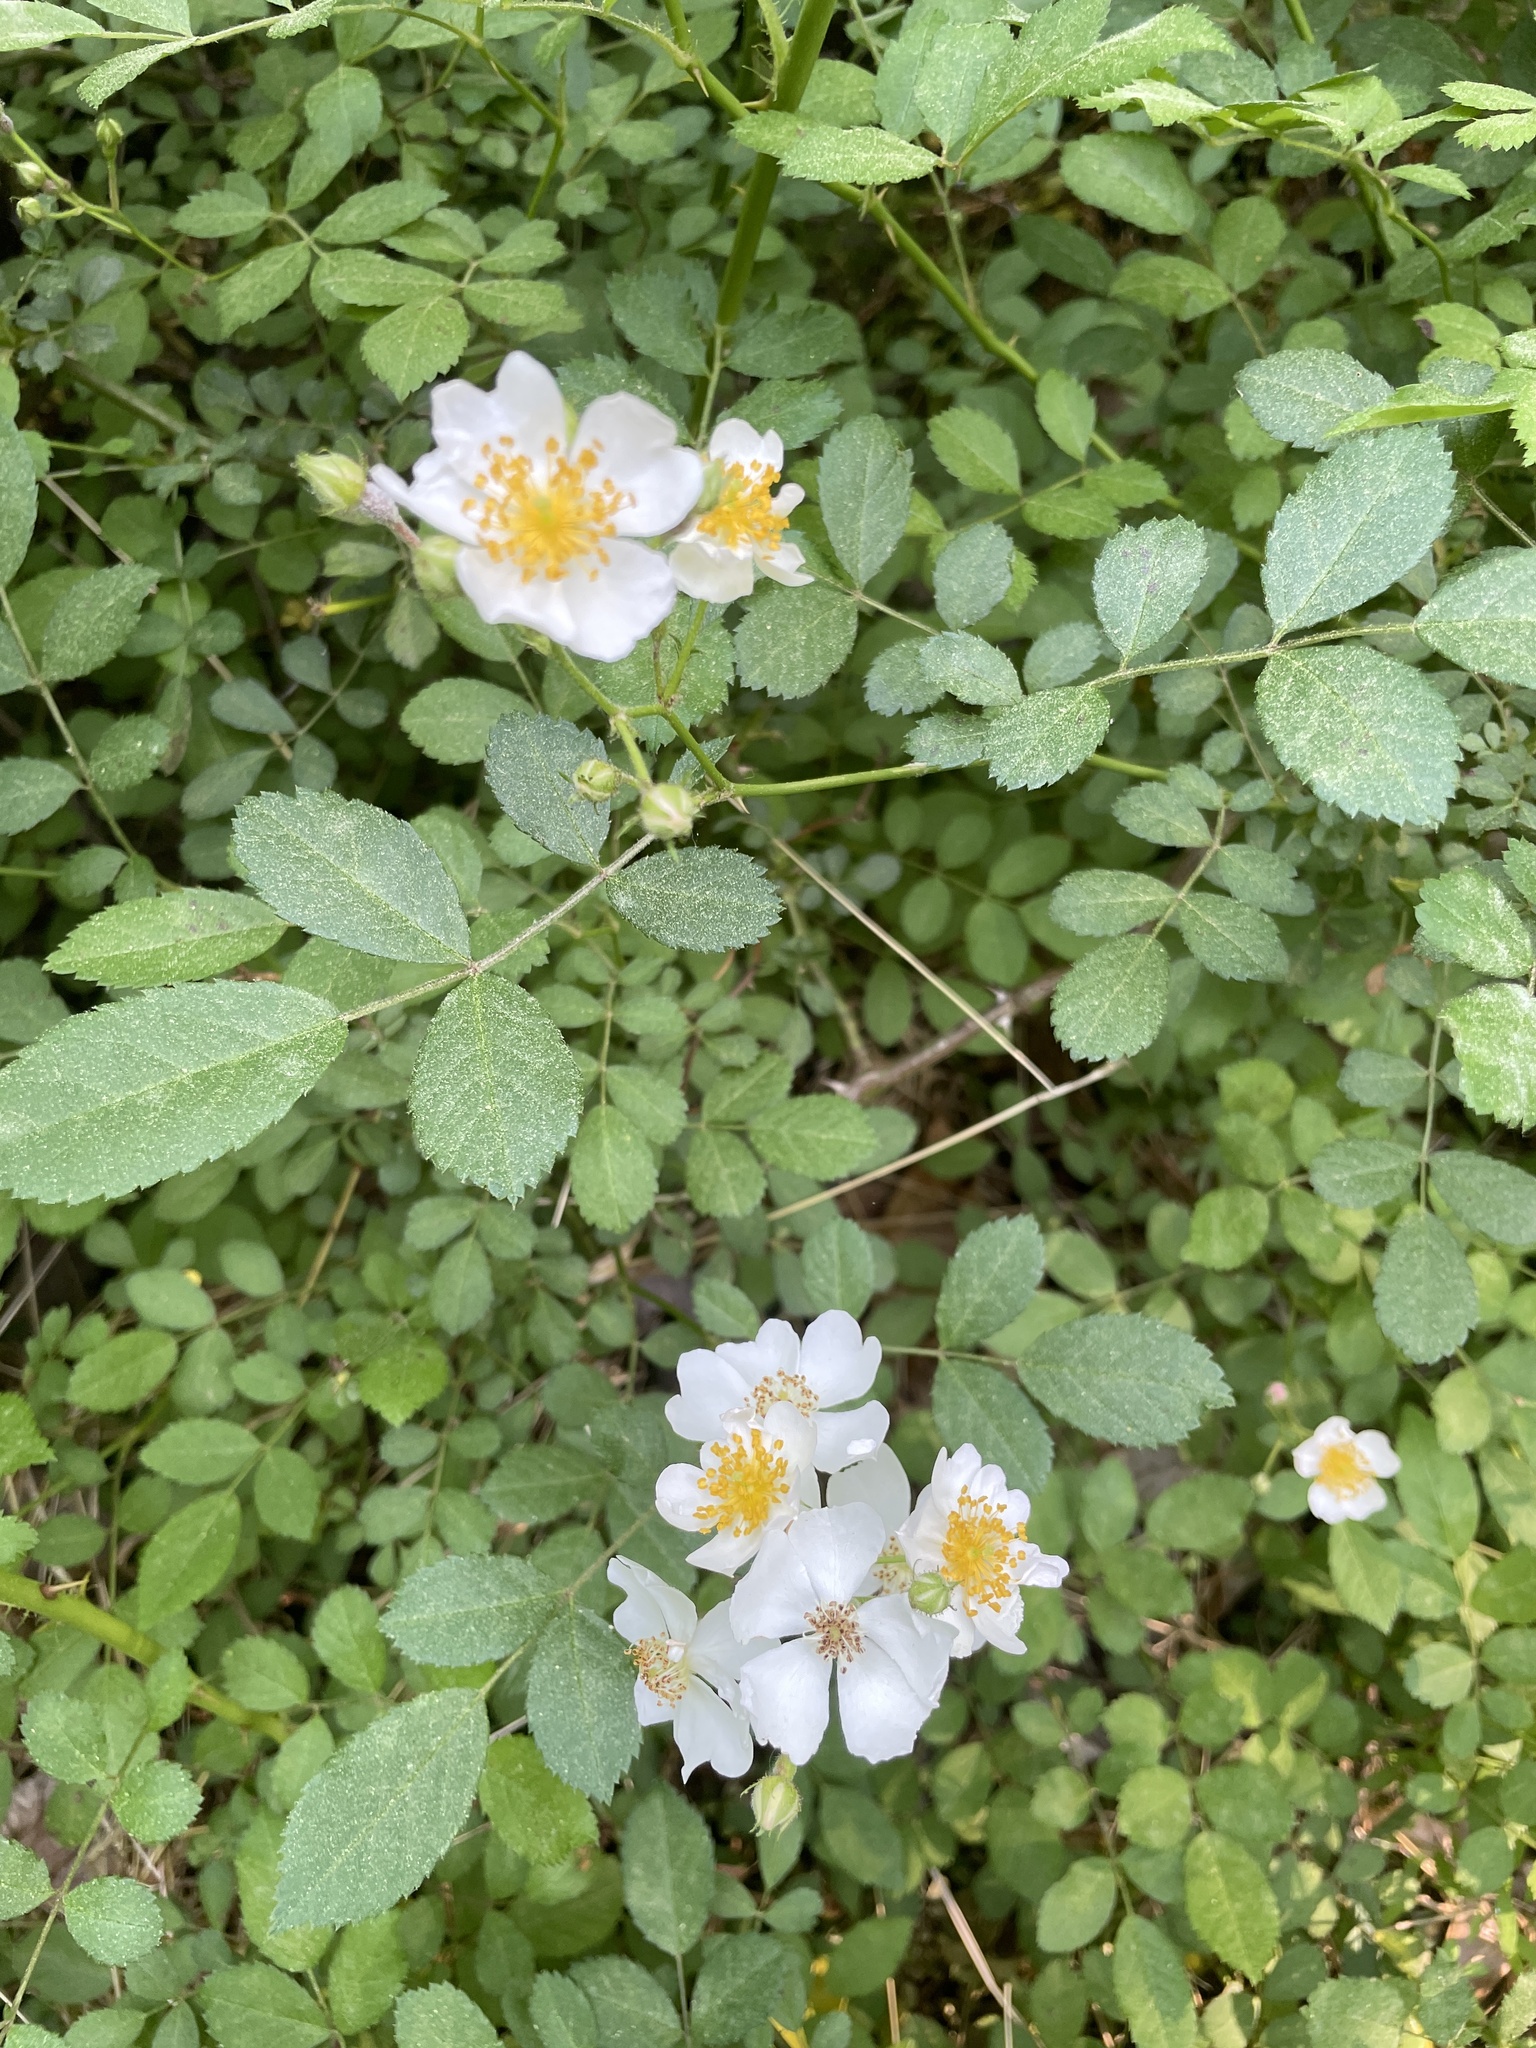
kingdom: Plantae
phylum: Tracheophyta
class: Magnoliopsida
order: Rosales
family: Rosaceae
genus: Rosa
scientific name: Rosa multiflora
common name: Multiflora rose
